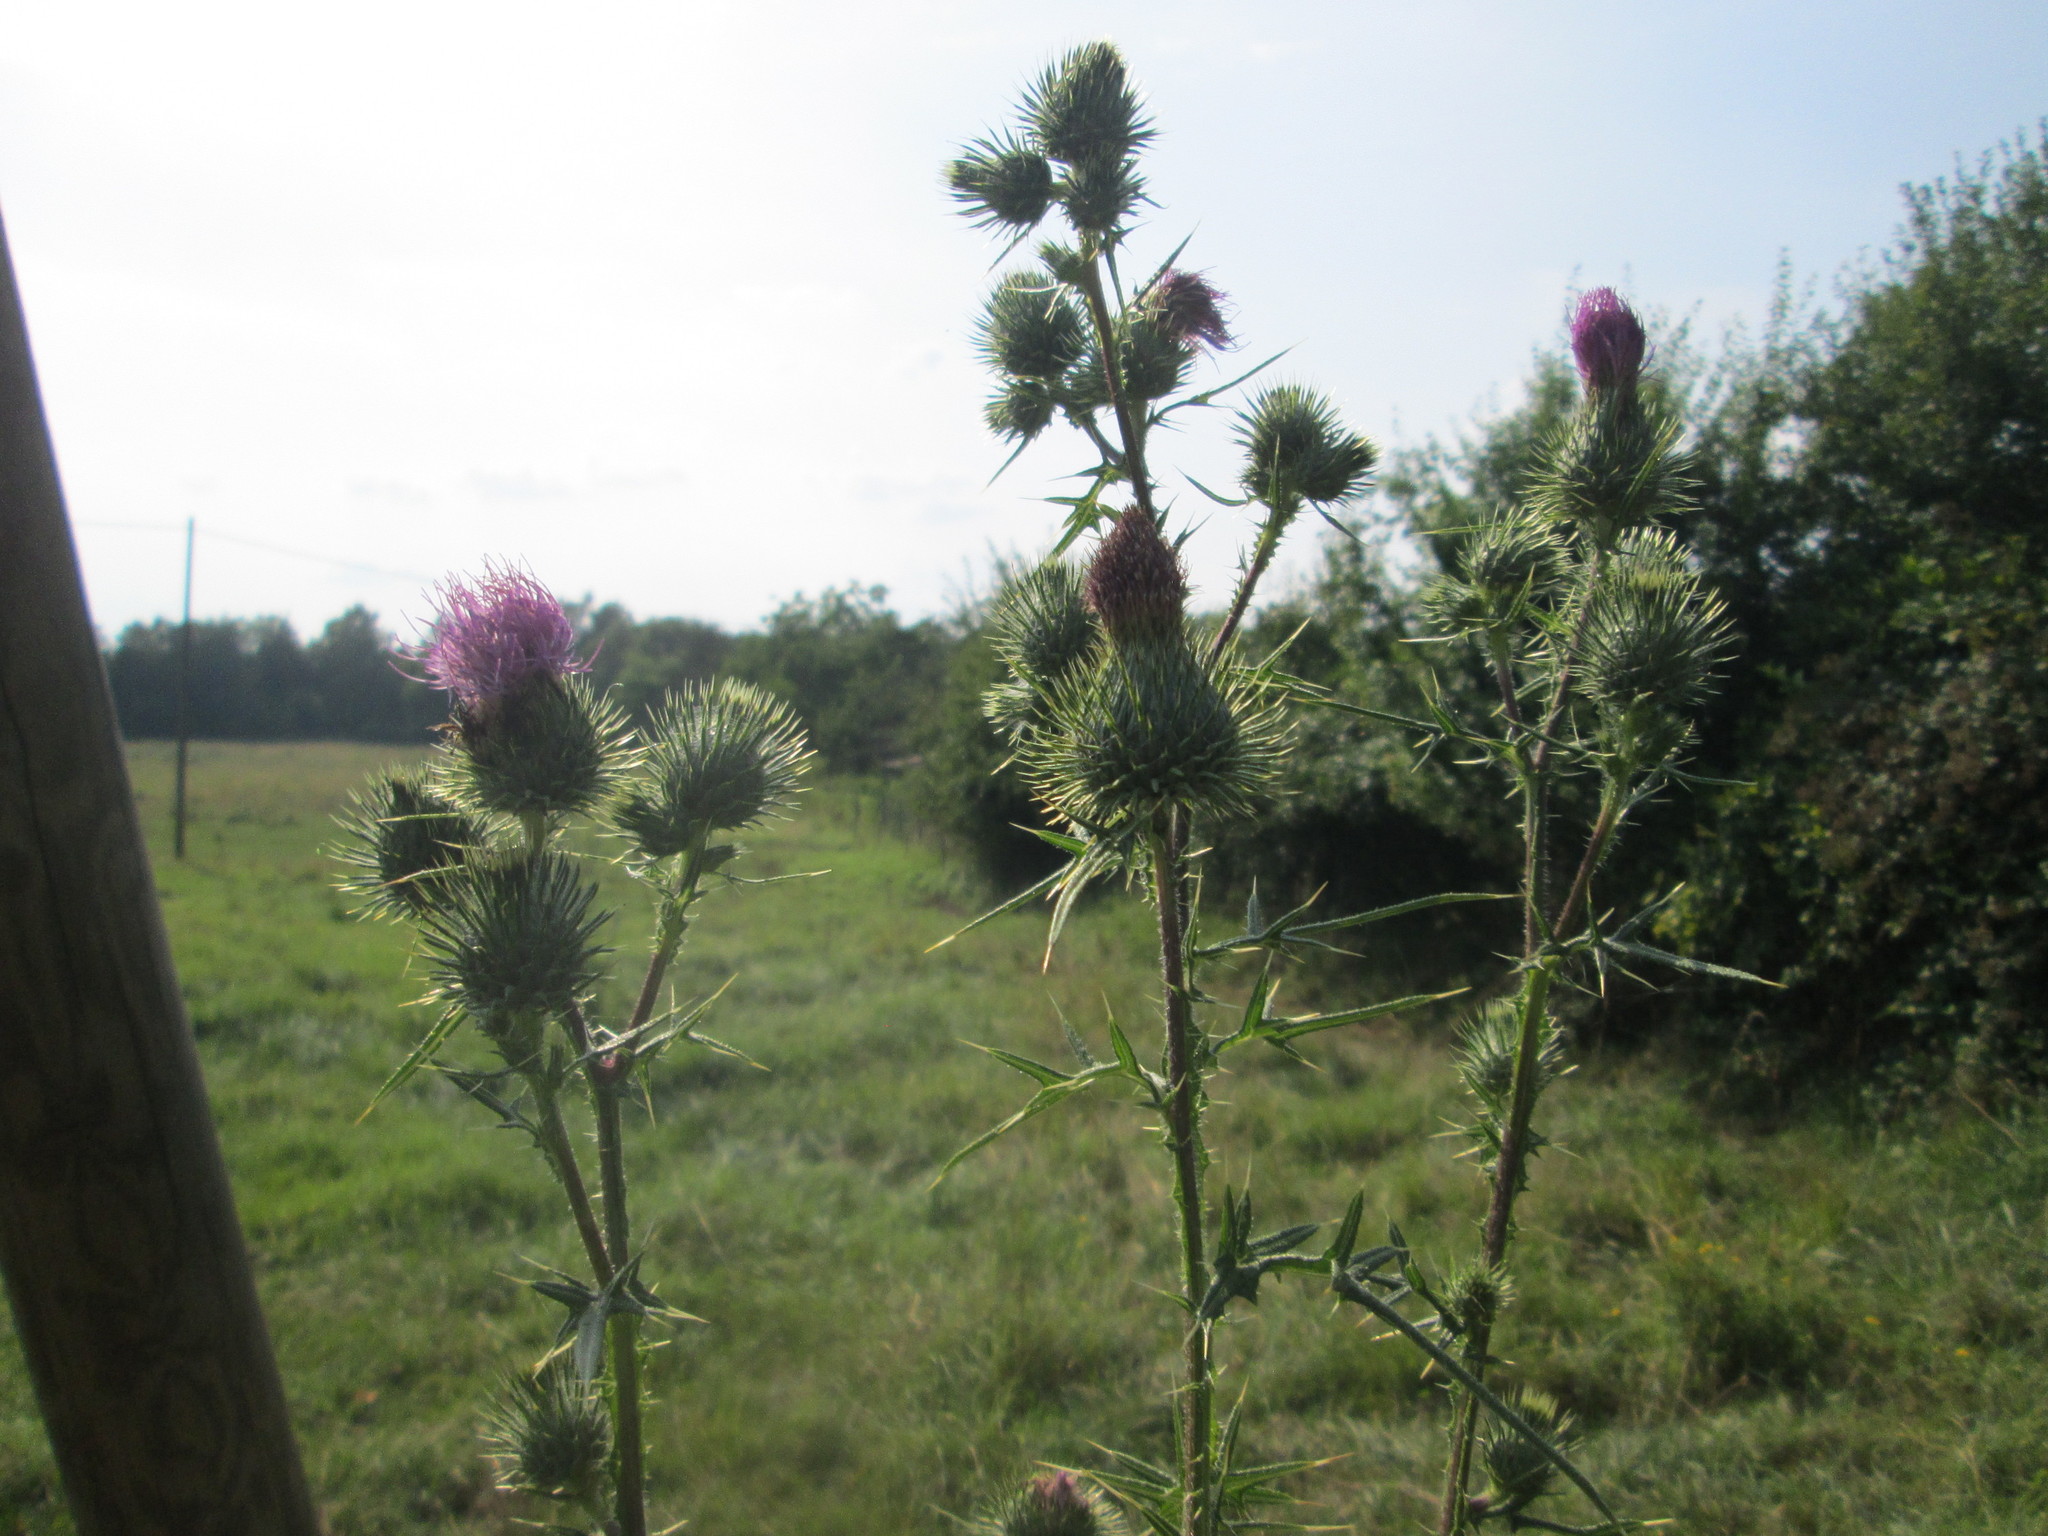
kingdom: Plantae
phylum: Tracheophyta
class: Magnoliopsida
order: Asterales
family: Asteraceae
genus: Cirsium
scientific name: Cirsium vulgare
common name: Bull thistle
